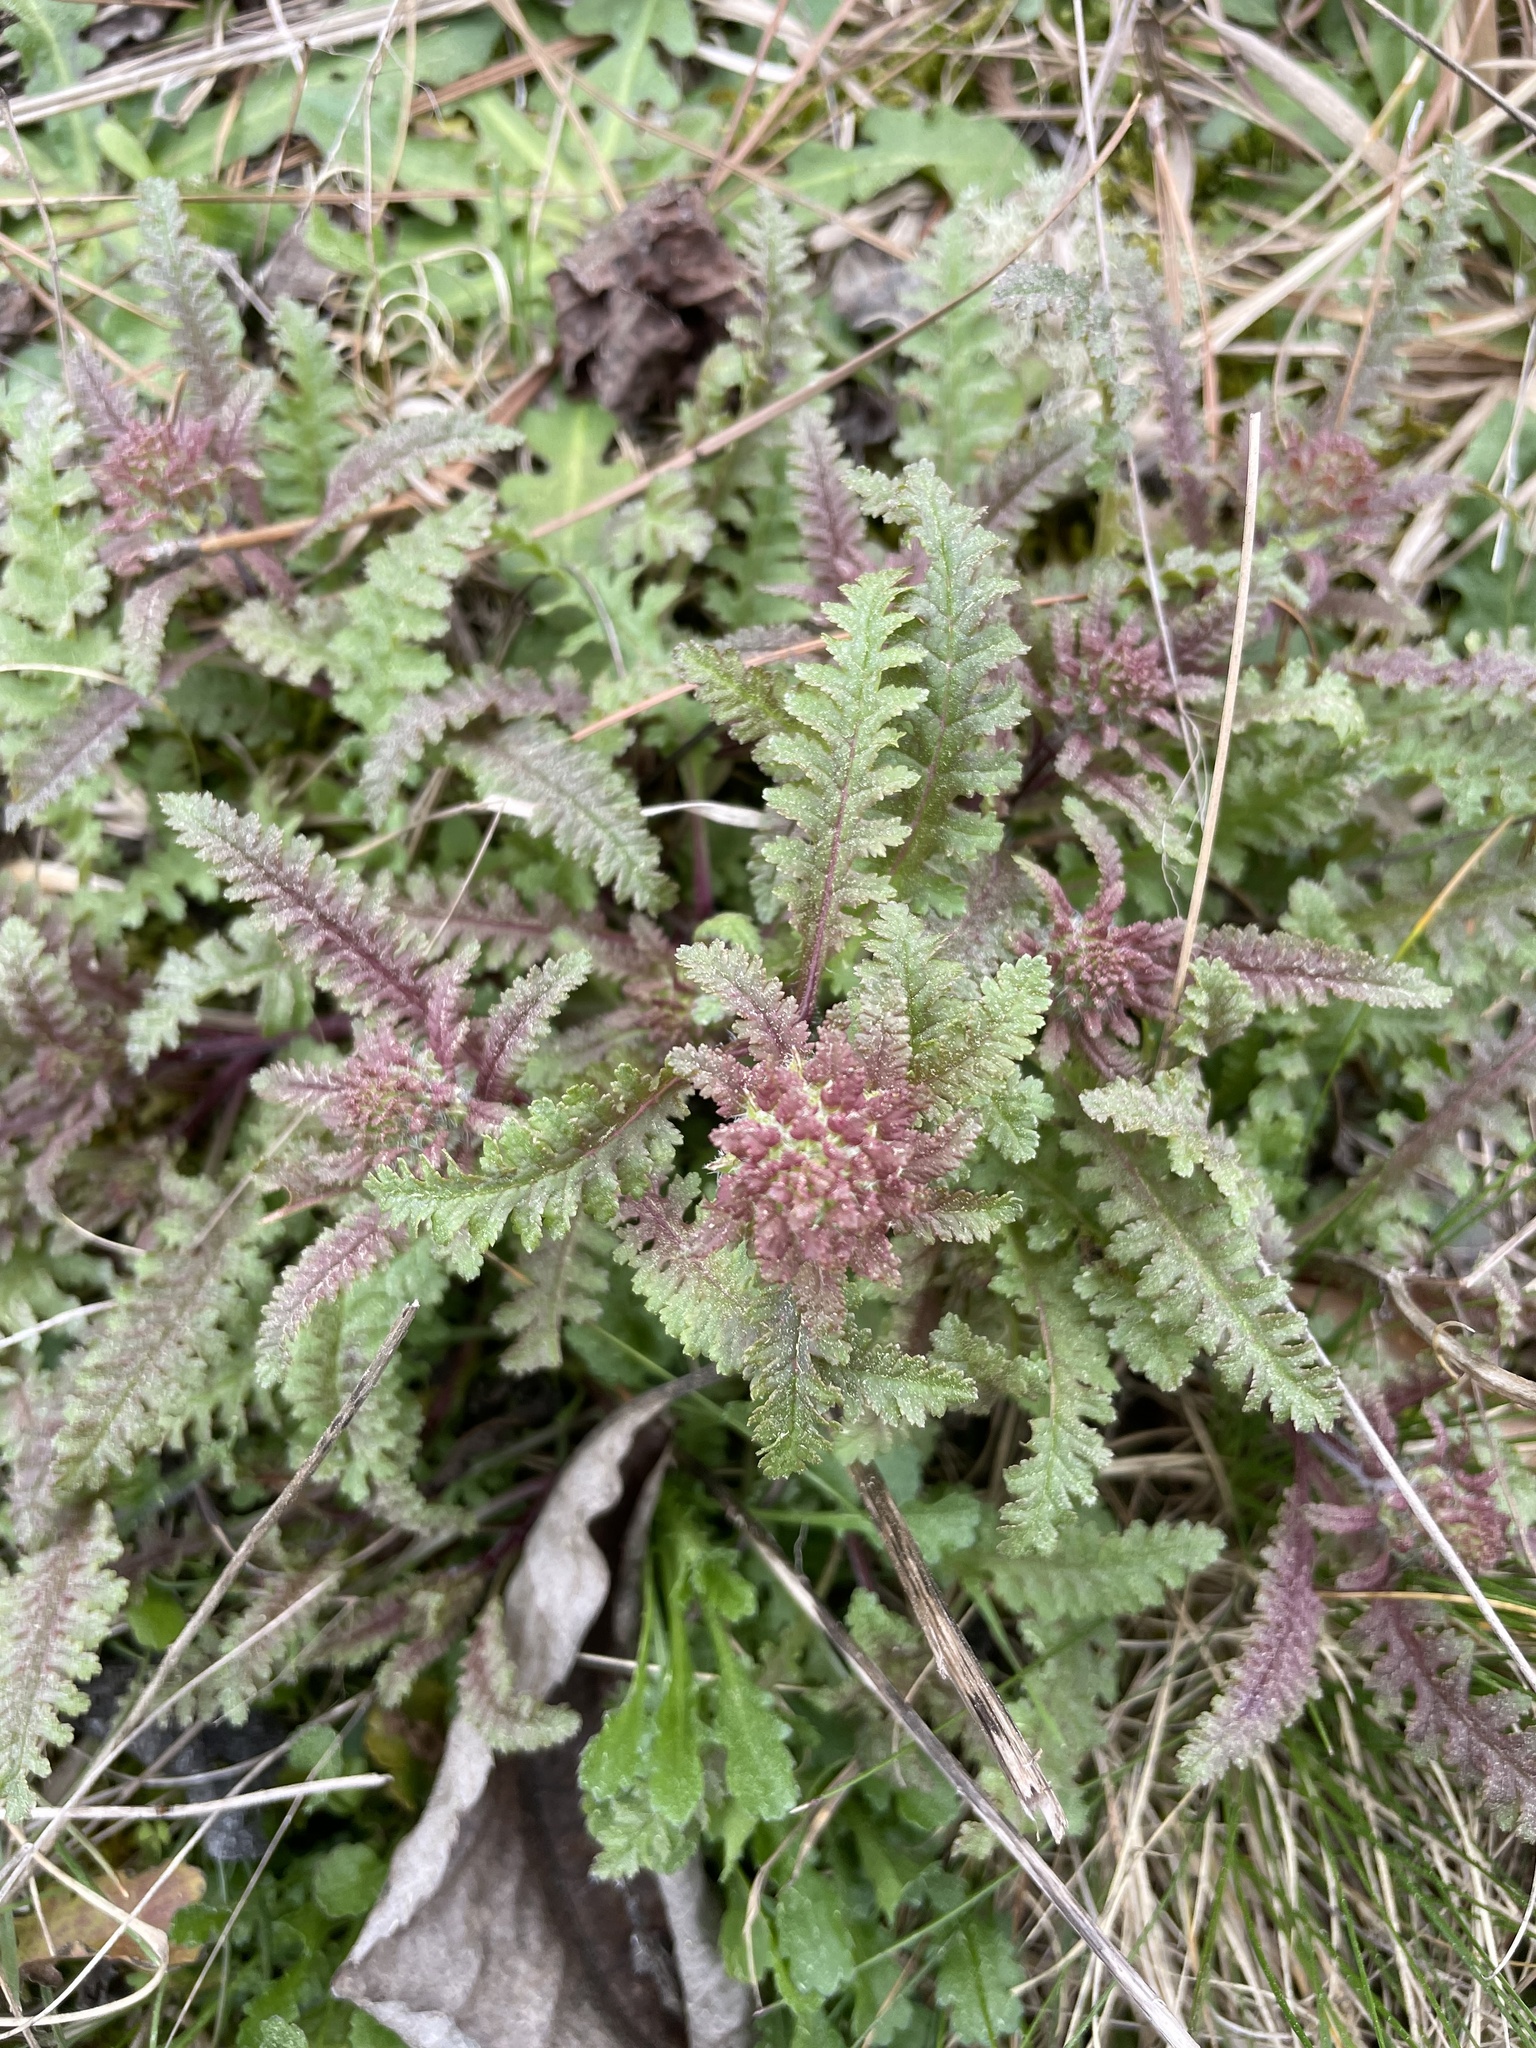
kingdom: Plantae
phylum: Tracheophyta
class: Magnoliopsida
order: Lamiales
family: Orobanchaceae
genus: Pedicularis
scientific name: Pedicularis canadensis
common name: Early lousewort
